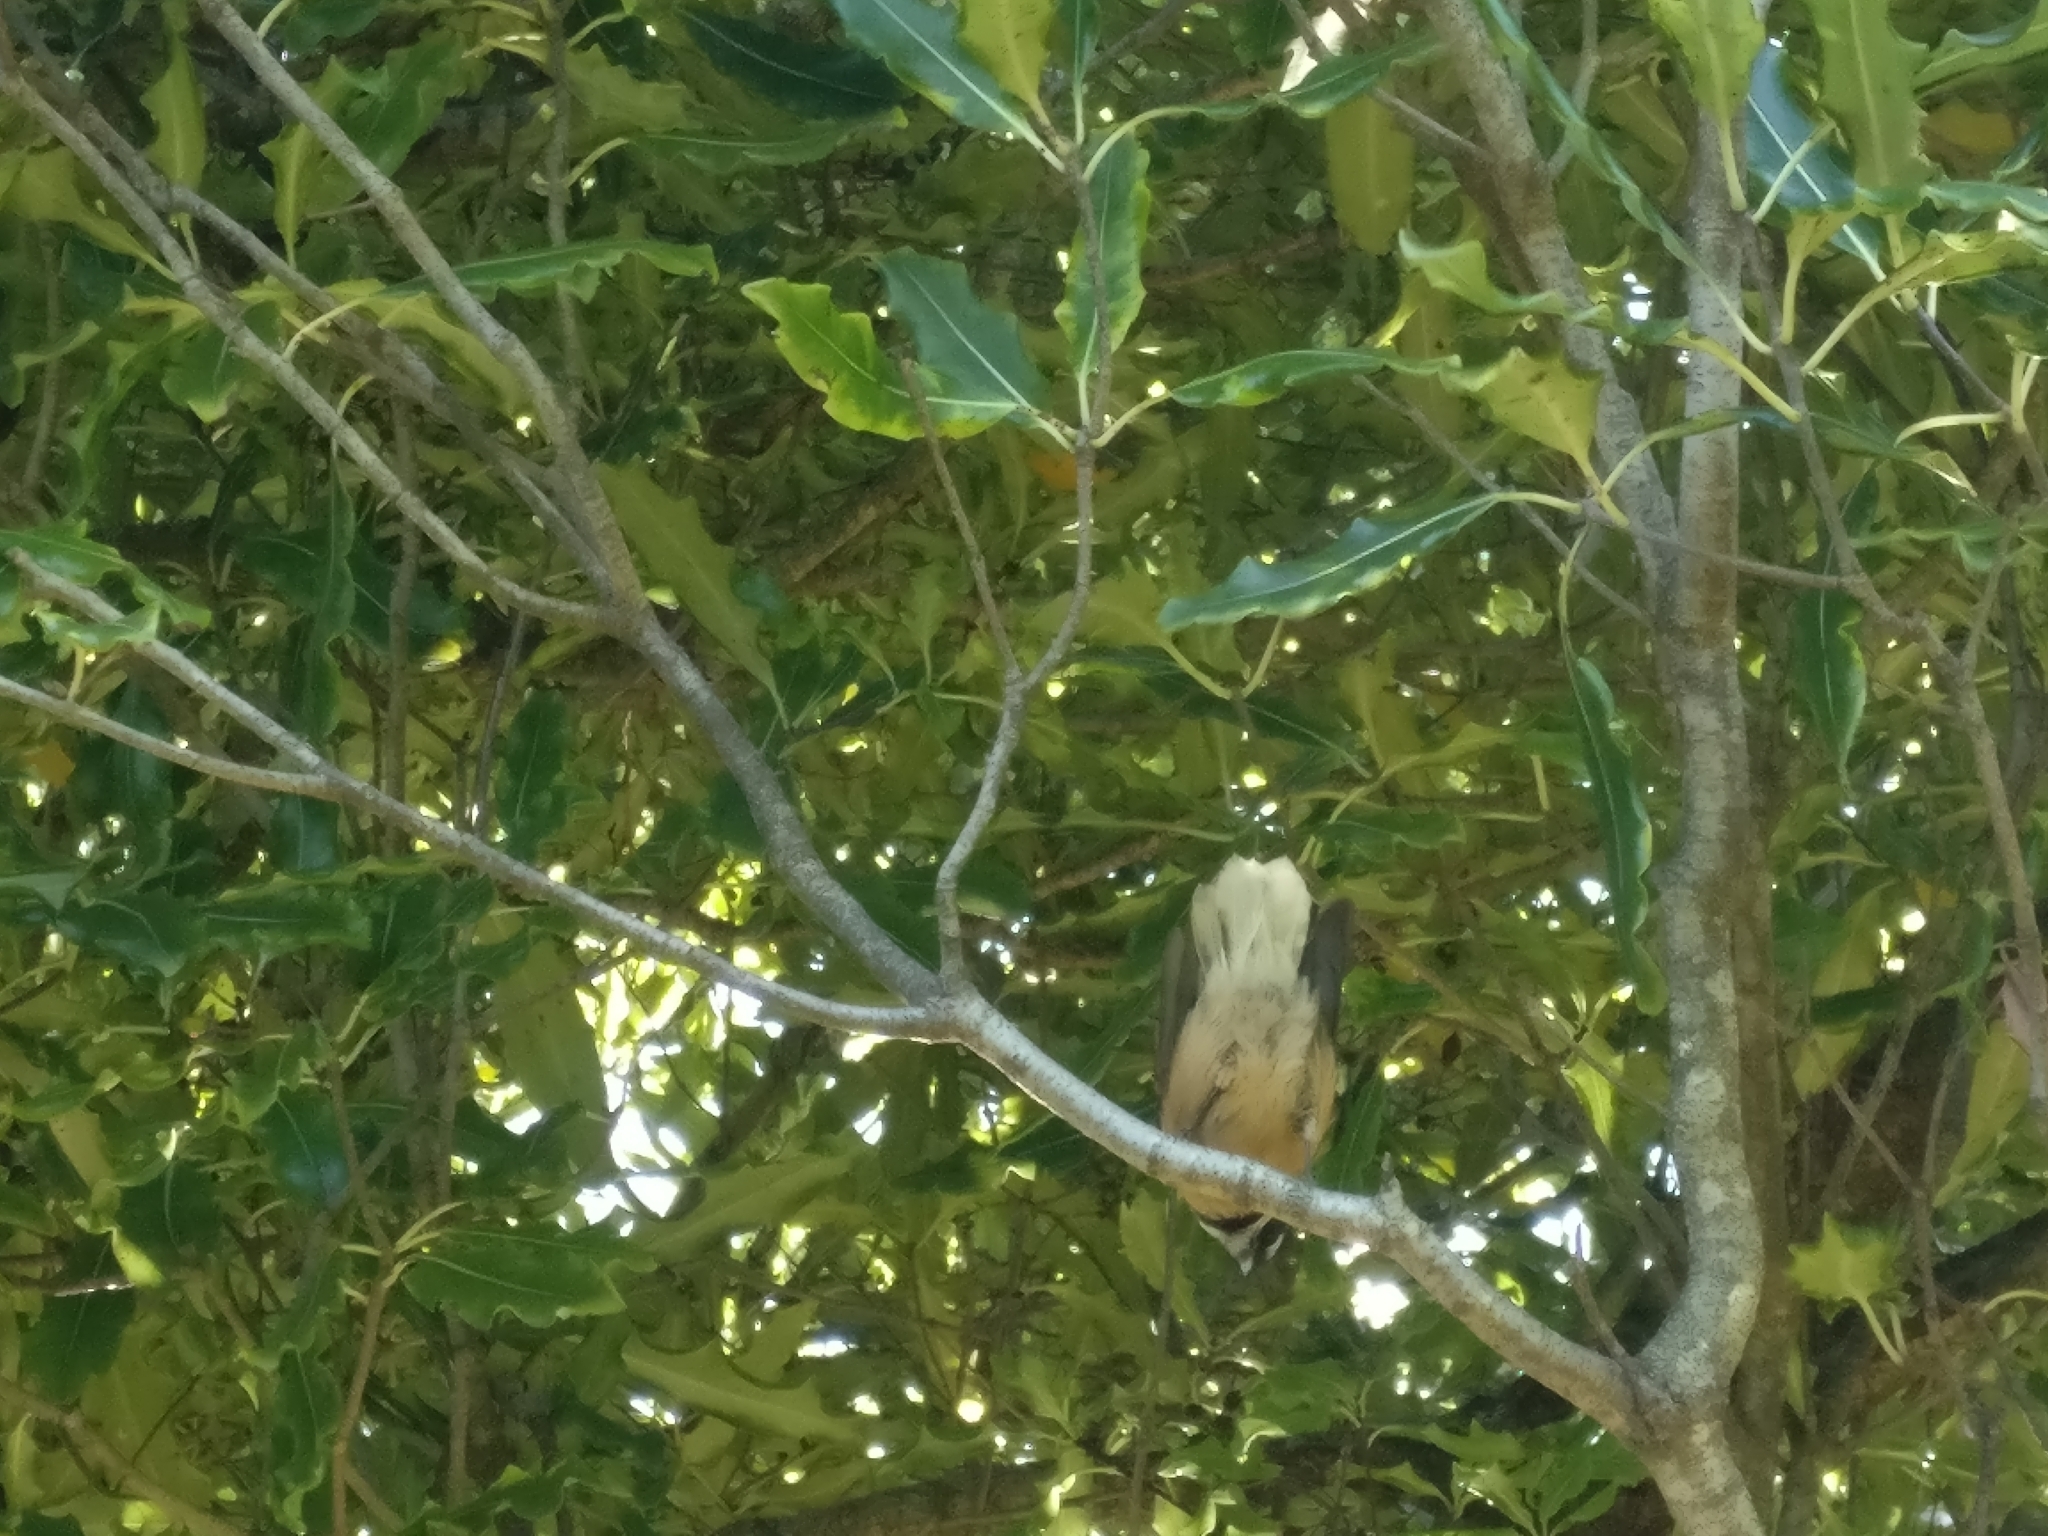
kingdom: Animalia
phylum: Chordata
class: Aves
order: Passeriformes
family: Rhipiduridae
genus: Rhipidura
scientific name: Rhipidura fuliginosa
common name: New zealand fantail
